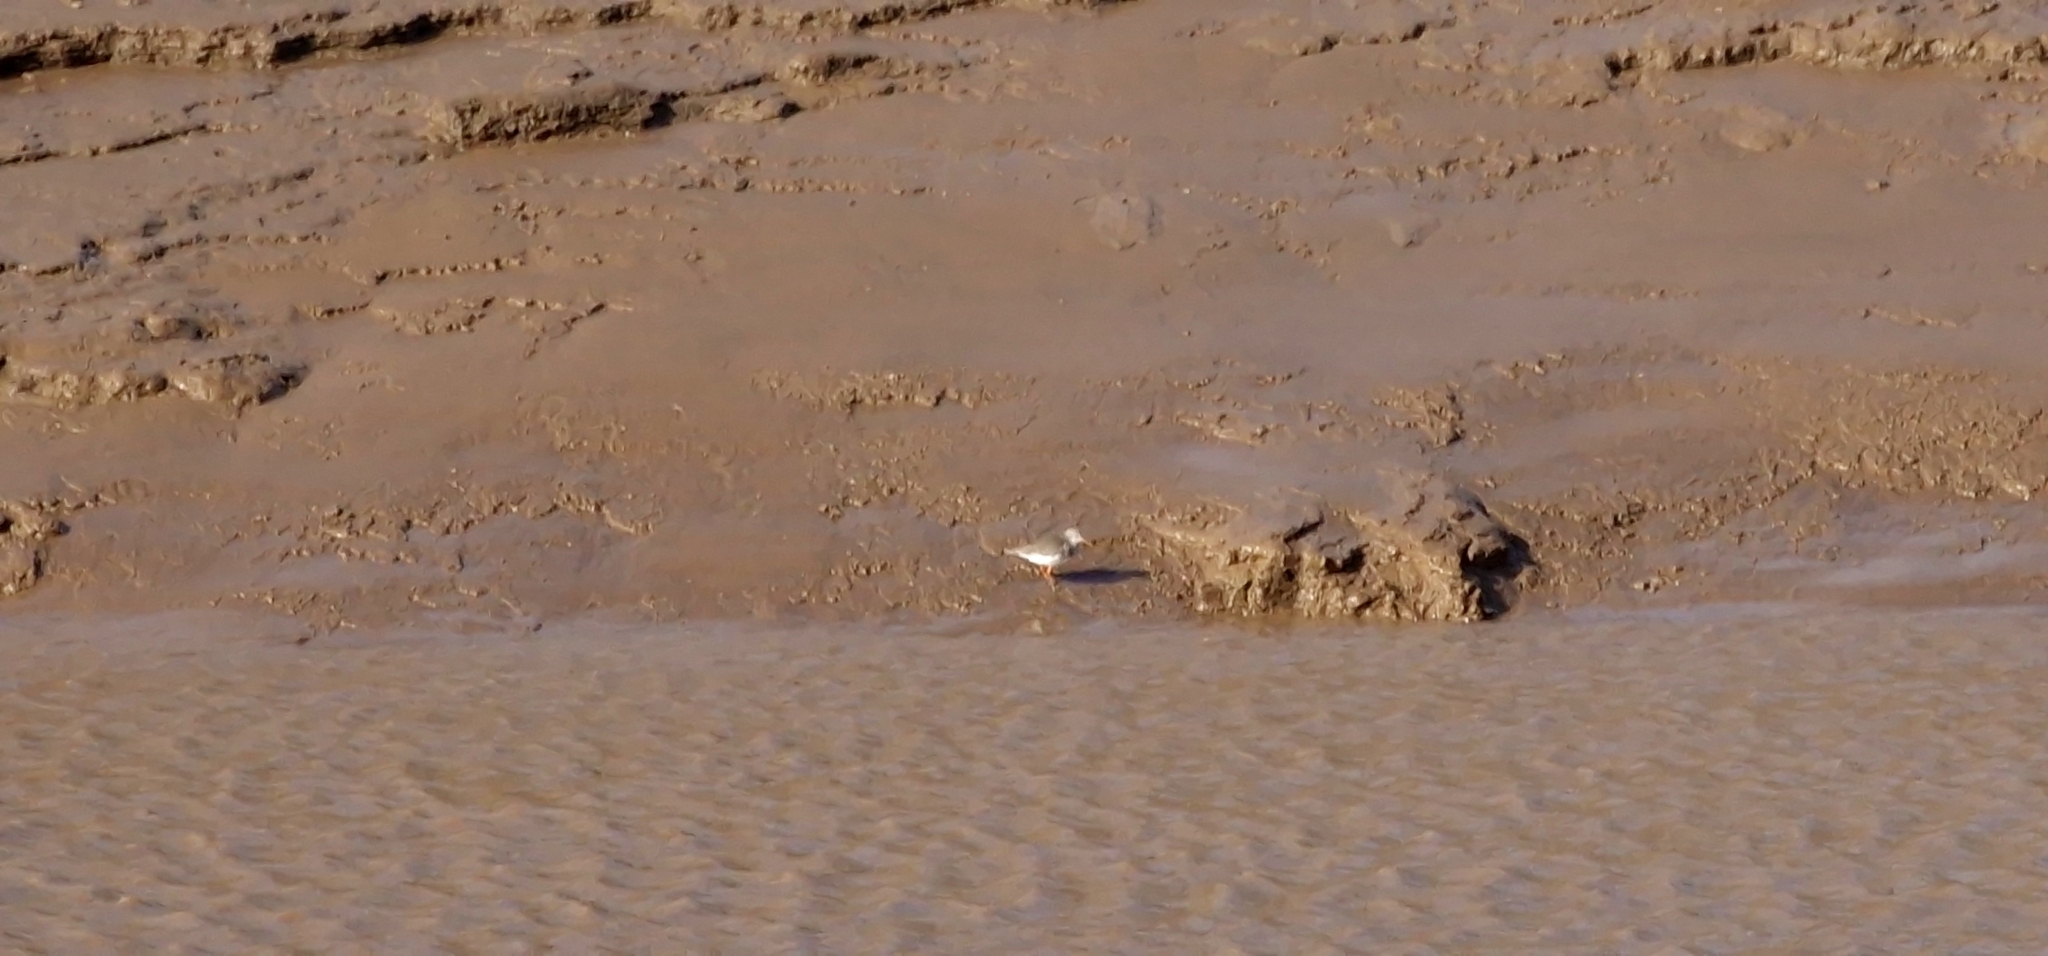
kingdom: Animalia
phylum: Chordata
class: Aves
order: Charadriiformes
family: Scolopacidae
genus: Tringa
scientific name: Tringa totanus
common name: Common redshank
